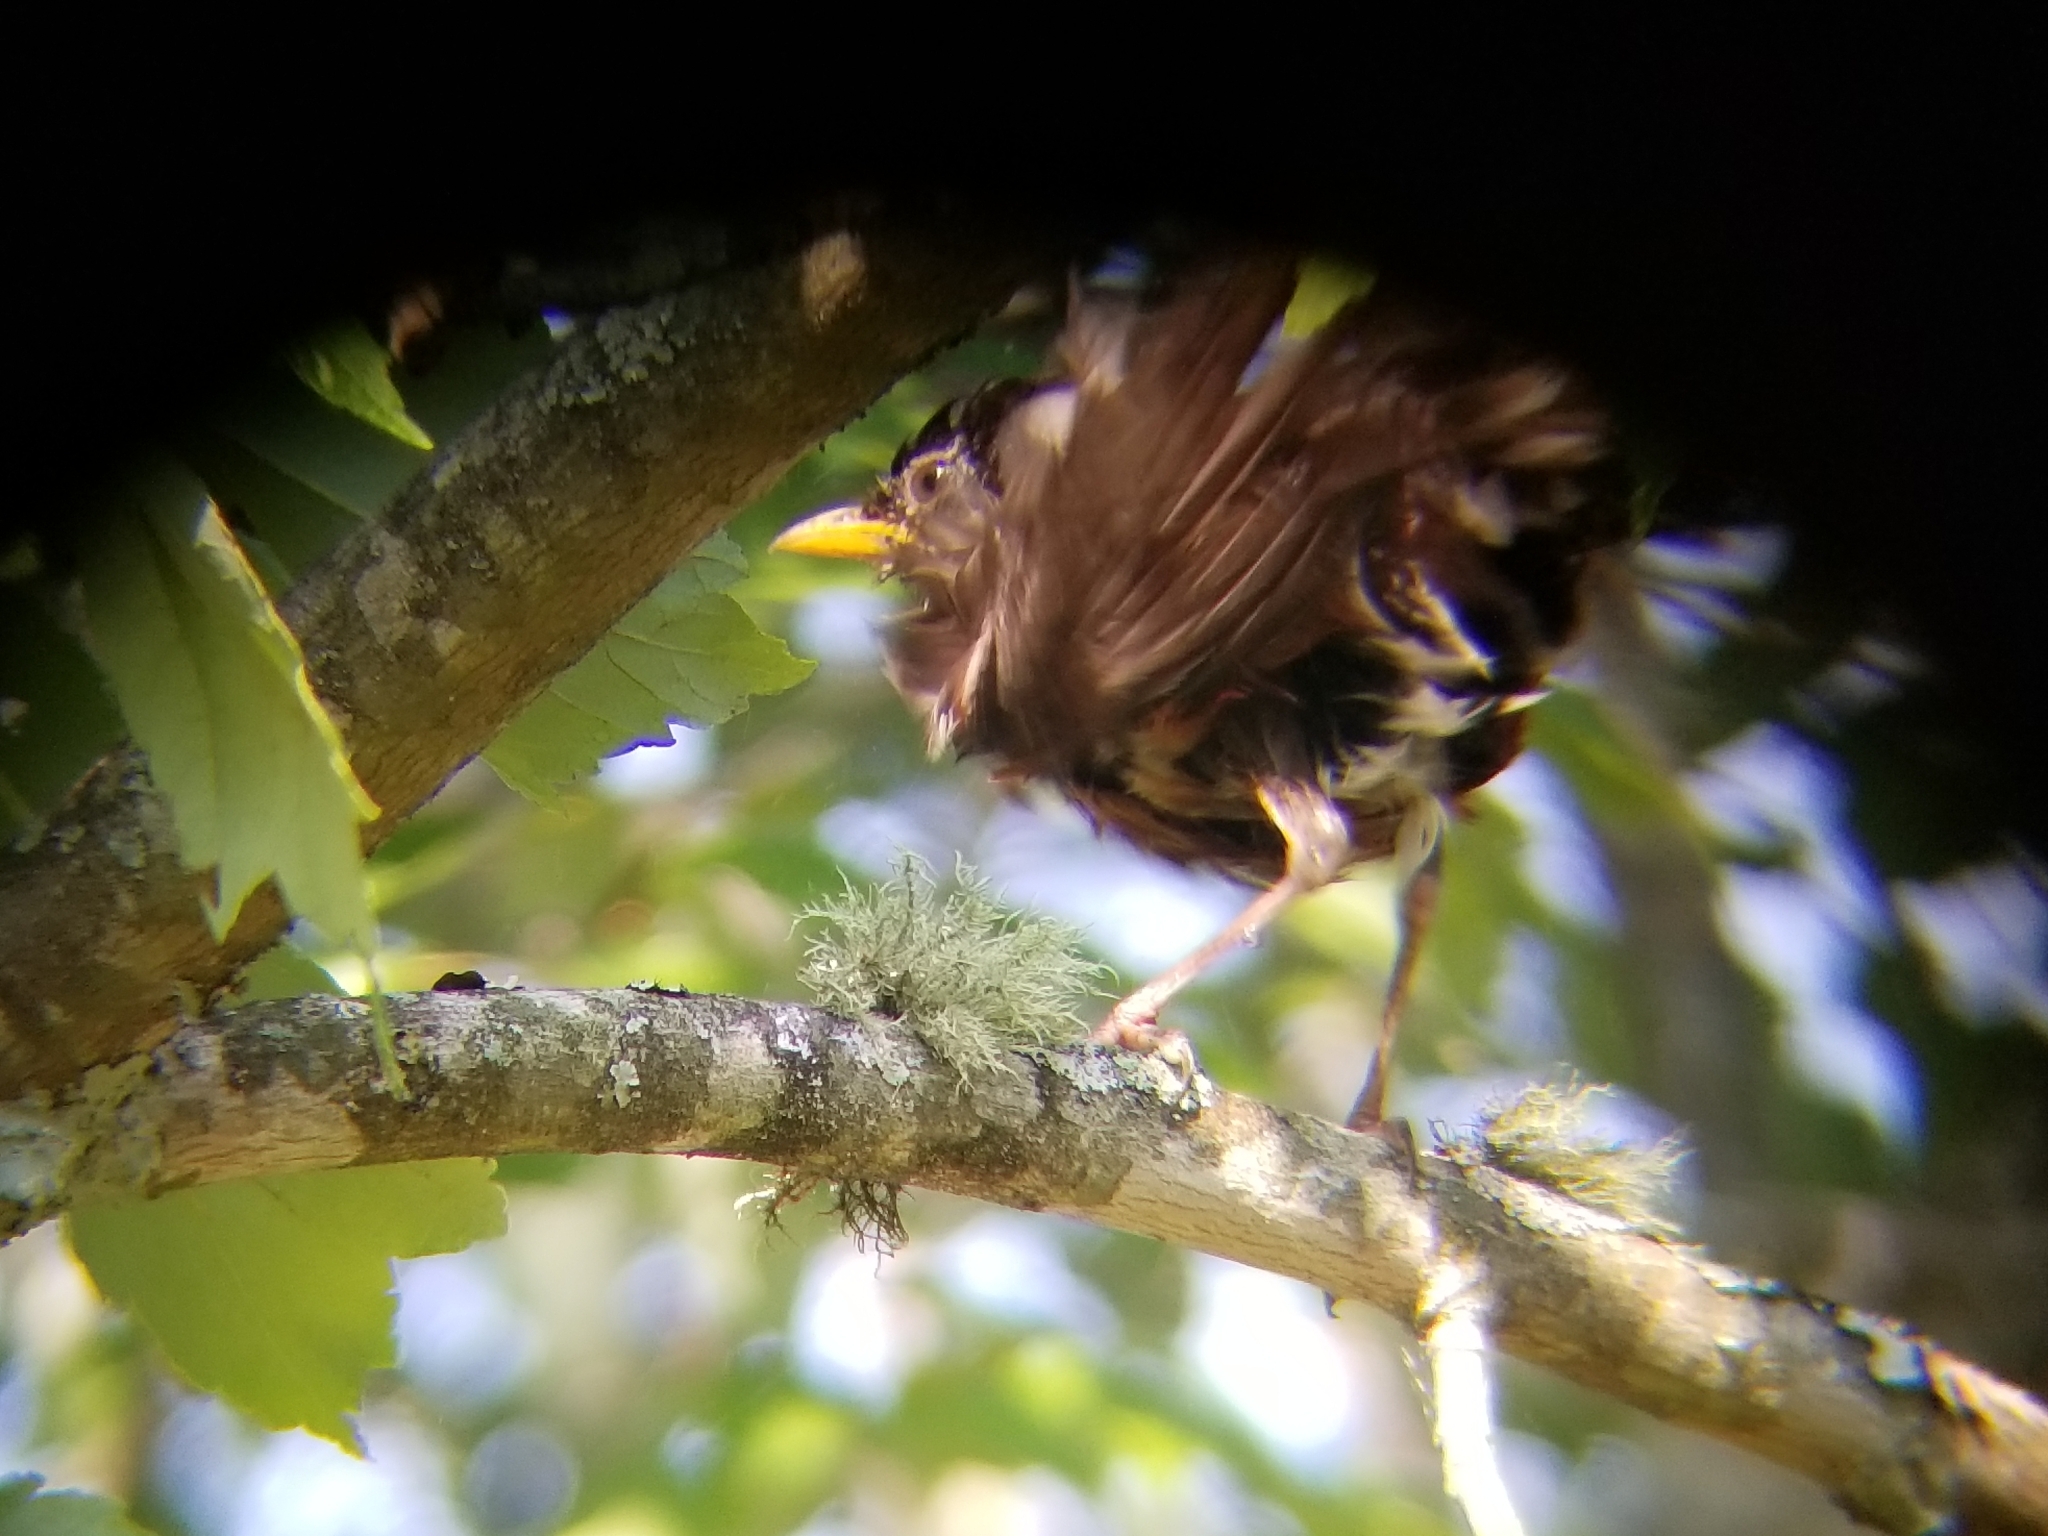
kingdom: Animalia
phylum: Chordata
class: Aves
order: Passeriformes
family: Turdidae
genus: Turdus
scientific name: Turdus migratorius
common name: American robin
